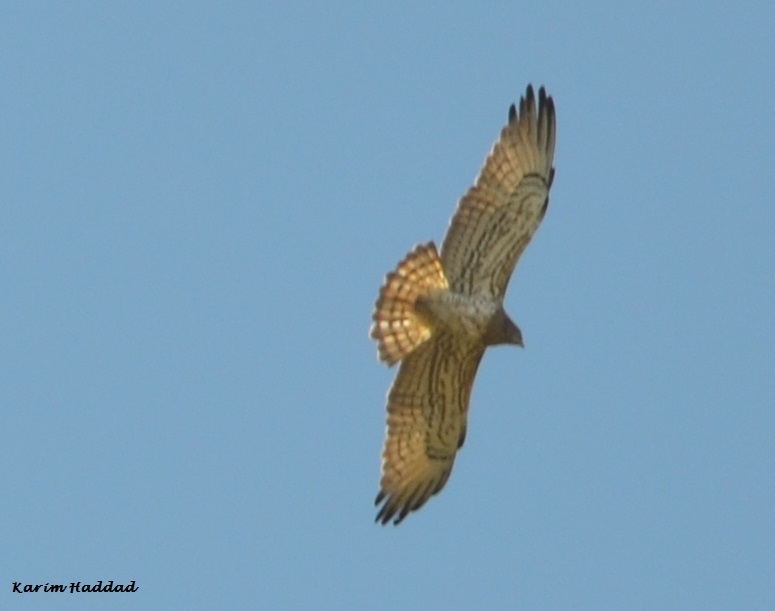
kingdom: Animalia
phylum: Chordata
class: Aves
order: Accipitriformes
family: Accipitridae
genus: Circaetus
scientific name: Circaetus gallicus
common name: Short-toed snake eagle
